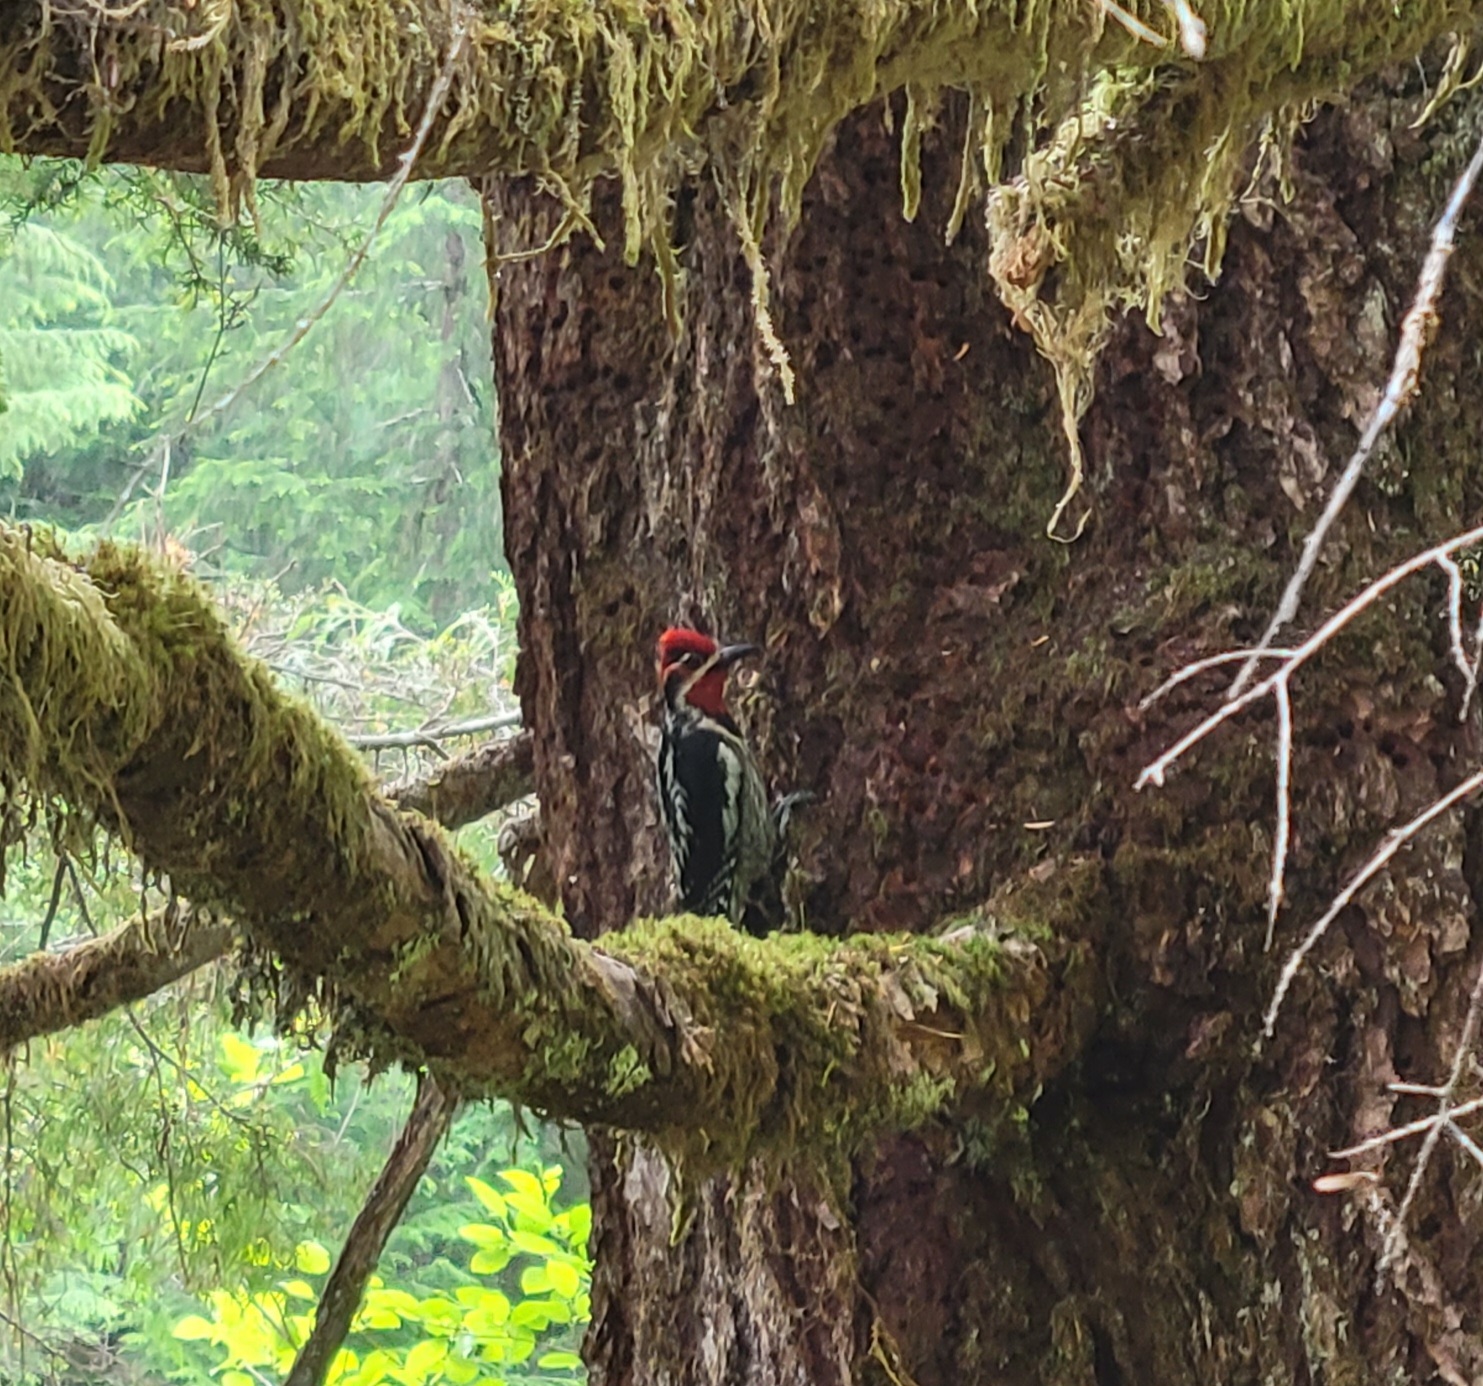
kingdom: Animalia
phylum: Chordata
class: Aves
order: Piciformes
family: Picidae
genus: Sphyrapicus
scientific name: Sphyrapicus nuchalis
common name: Red-naped sapsucker
